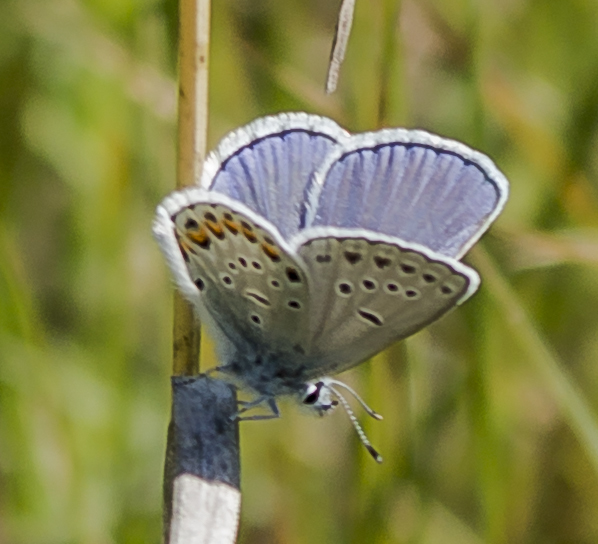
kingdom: Animalia
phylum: Arthropoda
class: Insecta
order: Lepidoptera
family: Lycaenidae
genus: Plebejus
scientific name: Plebejus samuelis
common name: Karner blue
